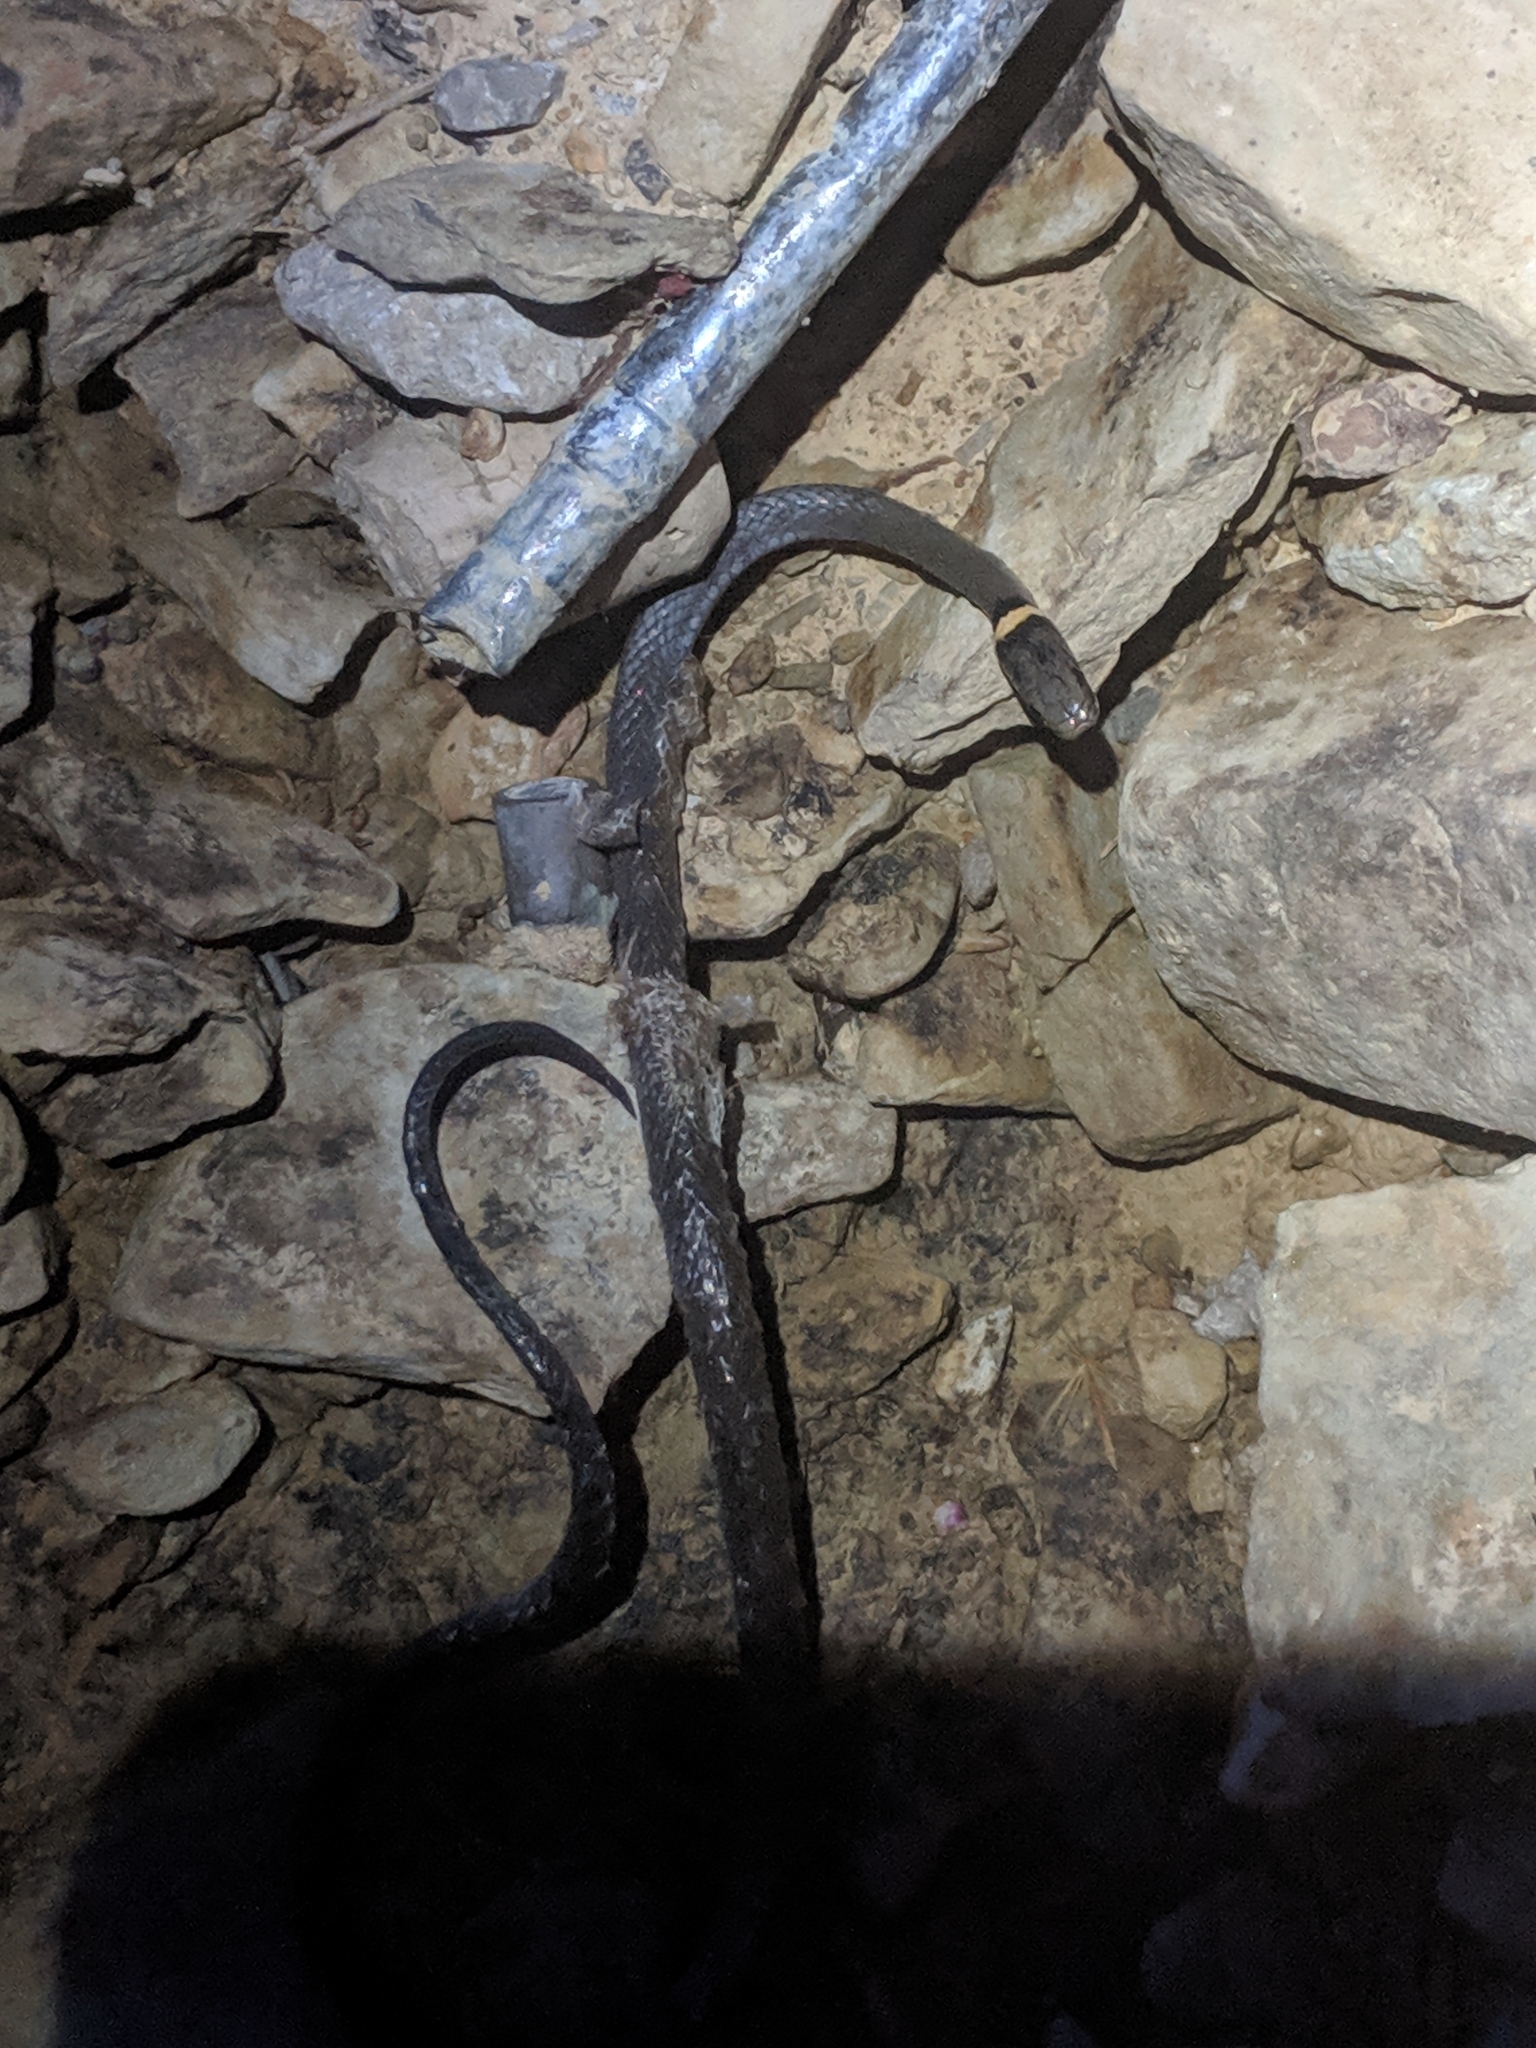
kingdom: Animalia
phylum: Chordata
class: Squamata
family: Colubridae
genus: Diadophis
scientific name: Diadophis punctatus
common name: Ringneck snake
